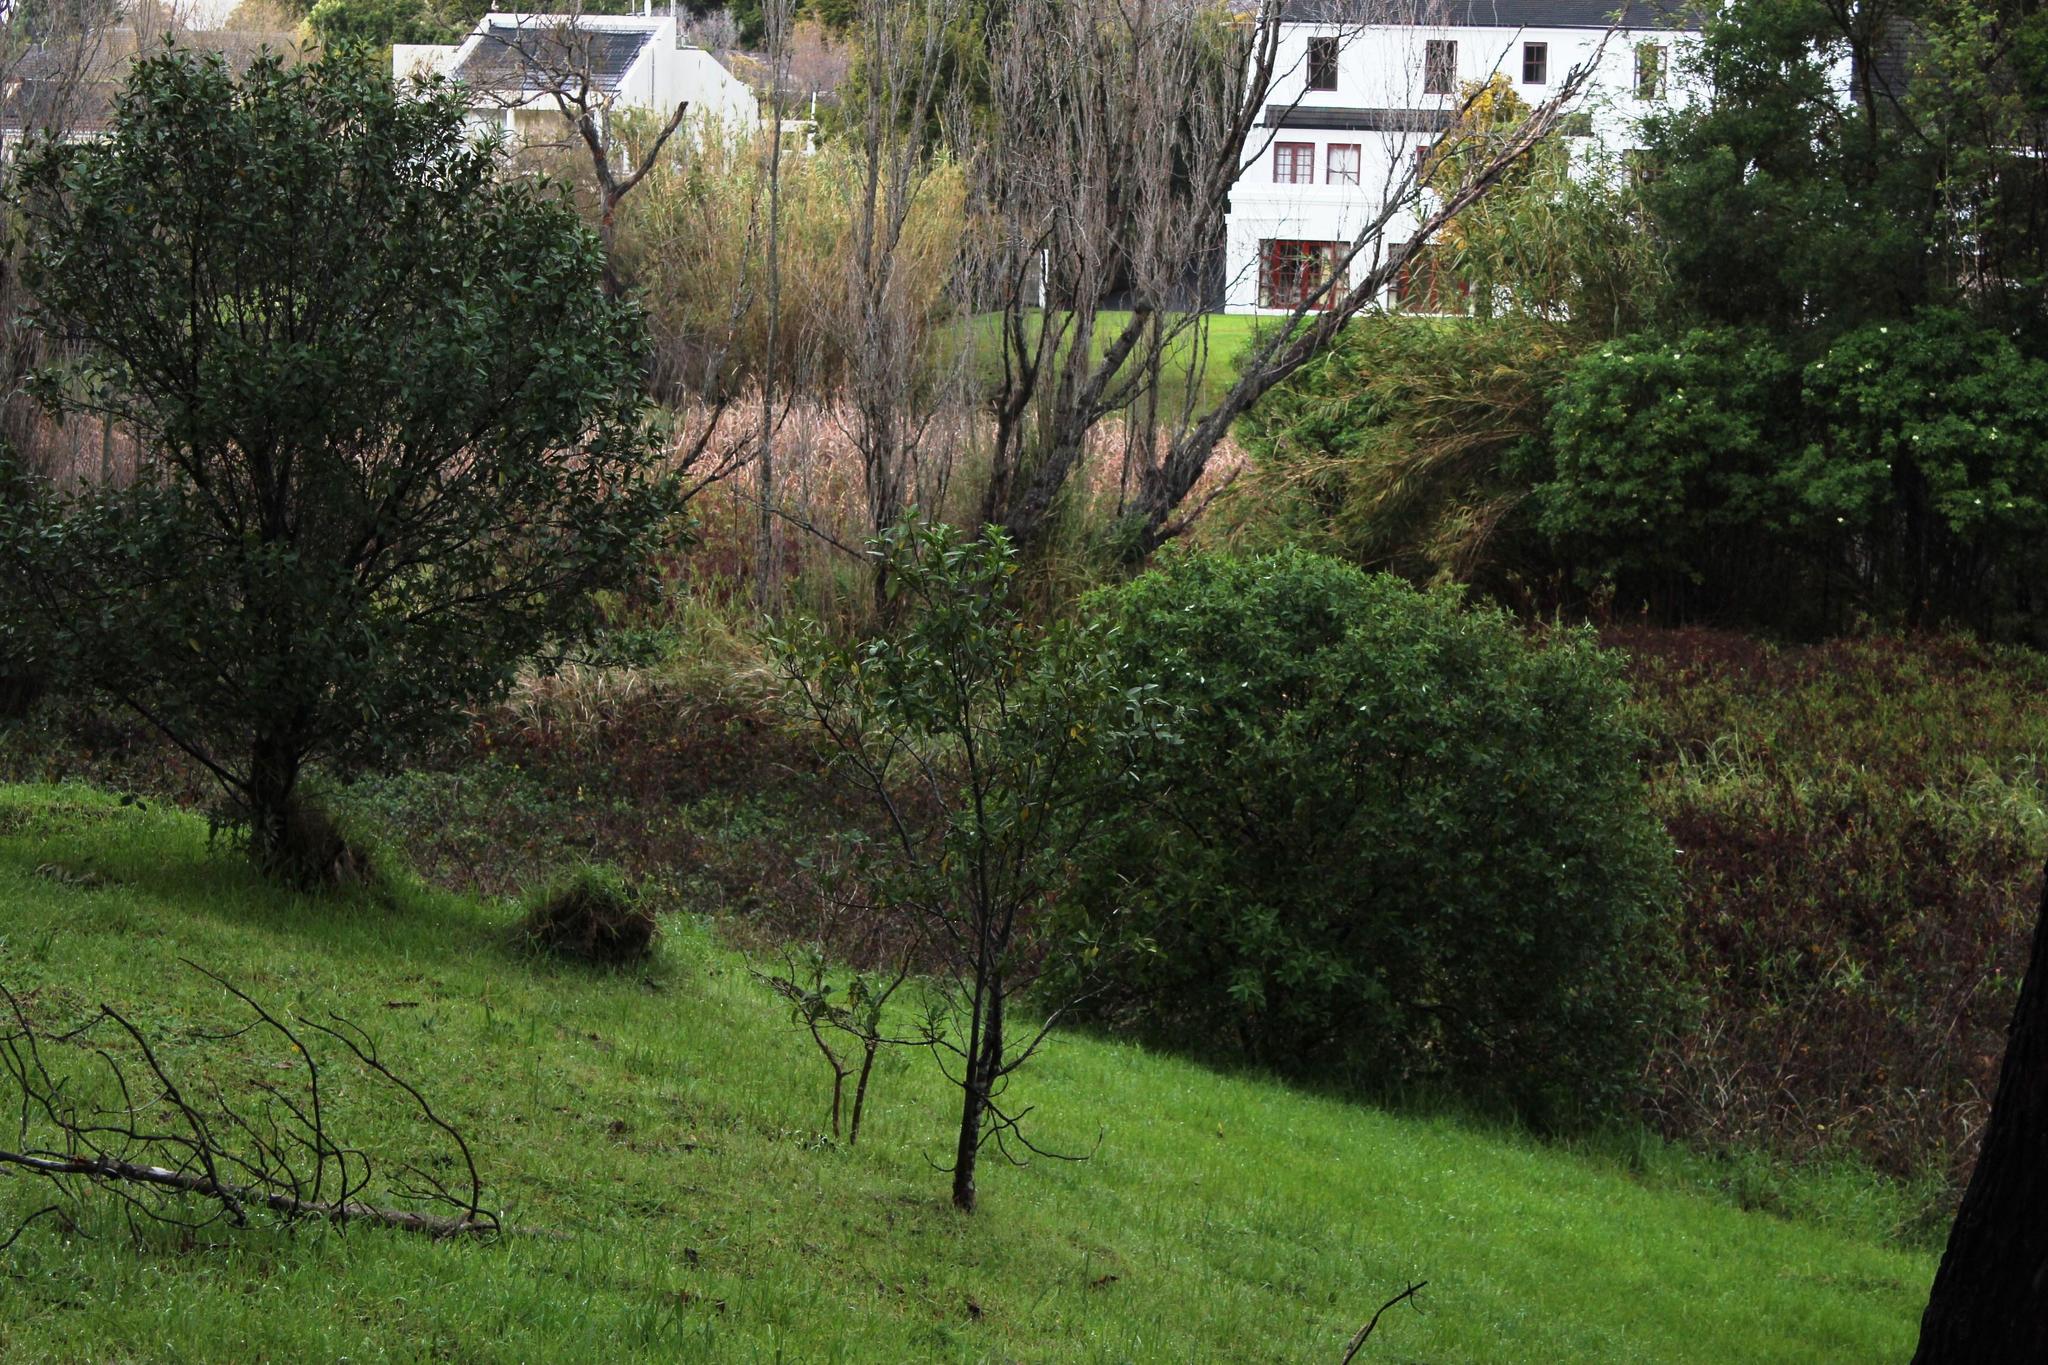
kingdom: Plantae
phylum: Tracheophyta
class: Magnoliopsida
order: Malpighiales
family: Achariaceae
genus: Kiggelaria
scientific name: Kiggelaria africana
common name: Wild peach
